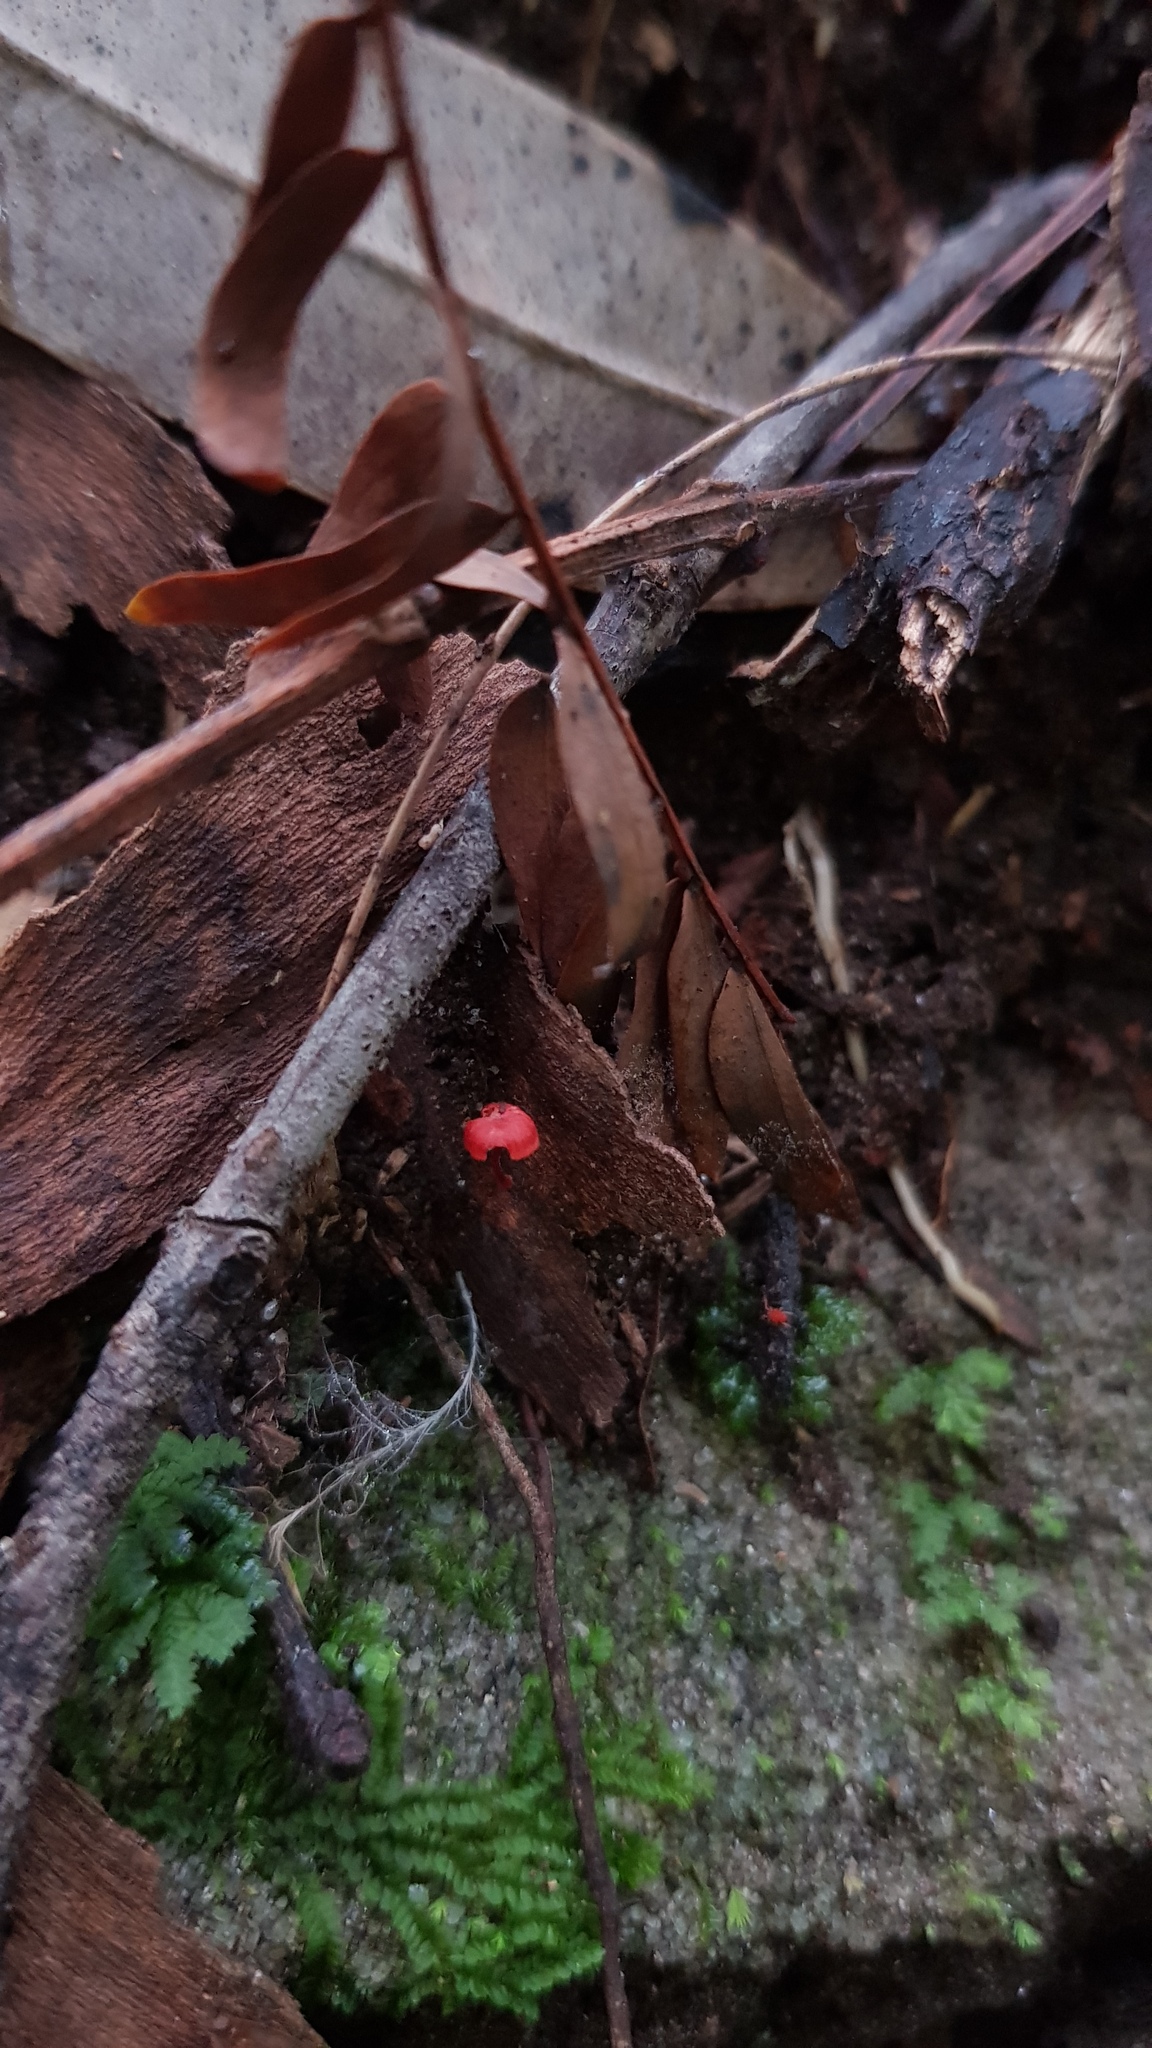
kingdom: Fungi
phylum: Basidiomycota
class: Agaricomycetes
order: Agaricales
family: Mycenaceae
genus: Cruentomycena
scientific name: Cruentomycena viscidocruenta
